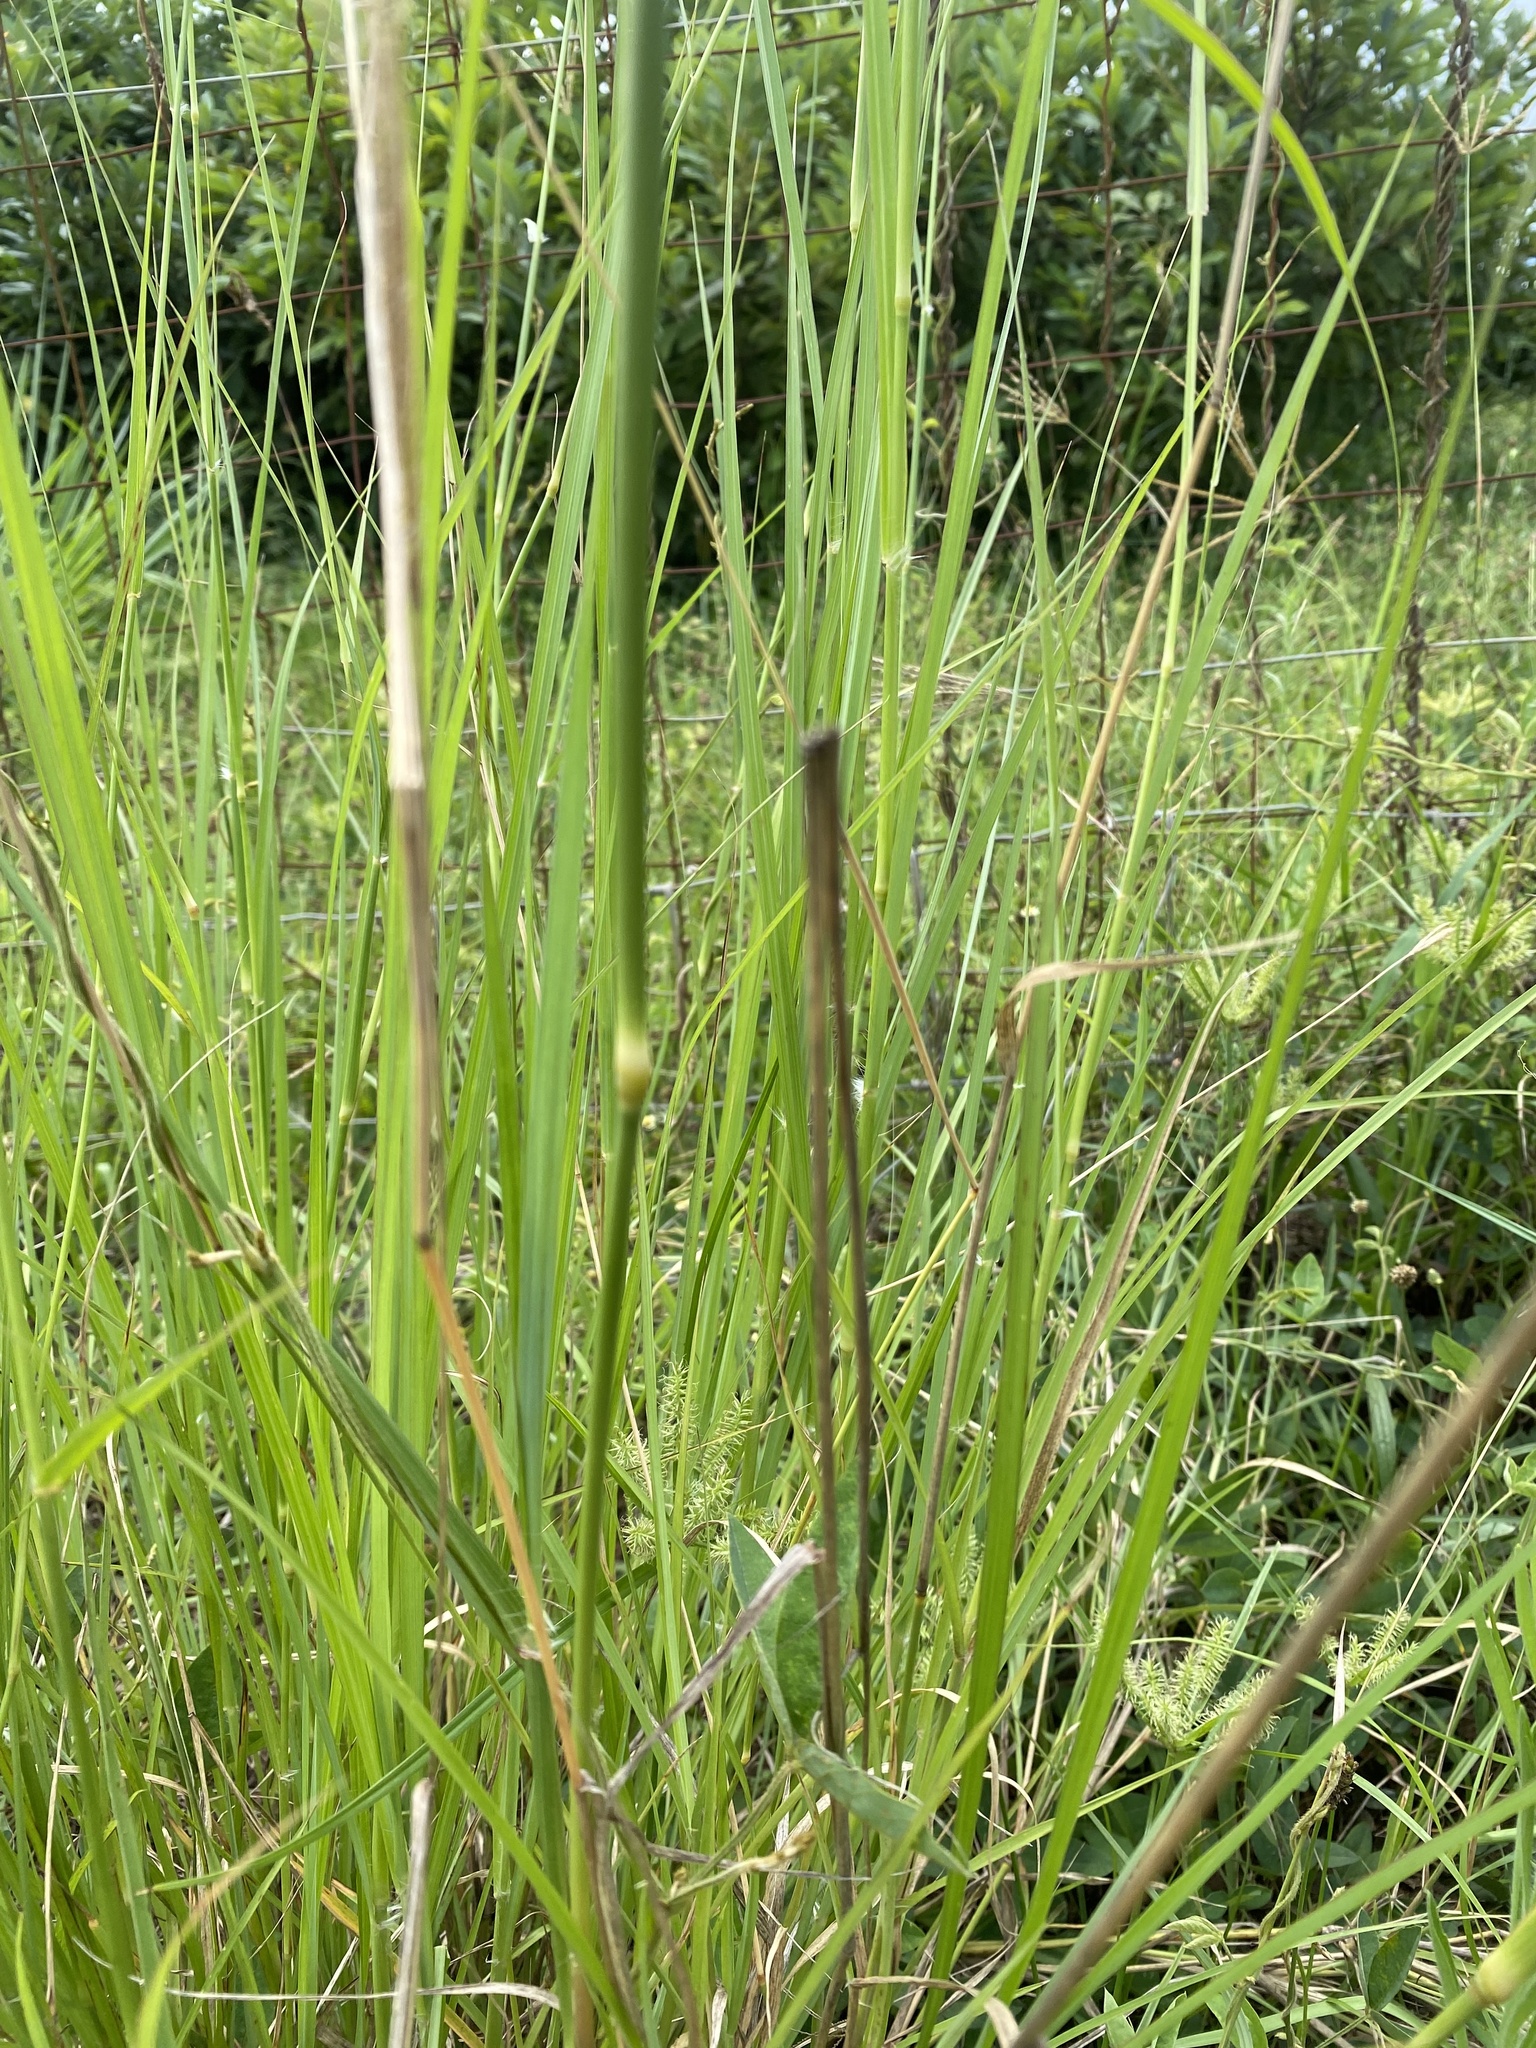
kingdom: Plantae
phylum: Tracheophyta
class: Liliopsida
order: Poales
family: Poaceae
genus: Chloris
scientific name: Chloris gayana
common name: Rhodes grass
